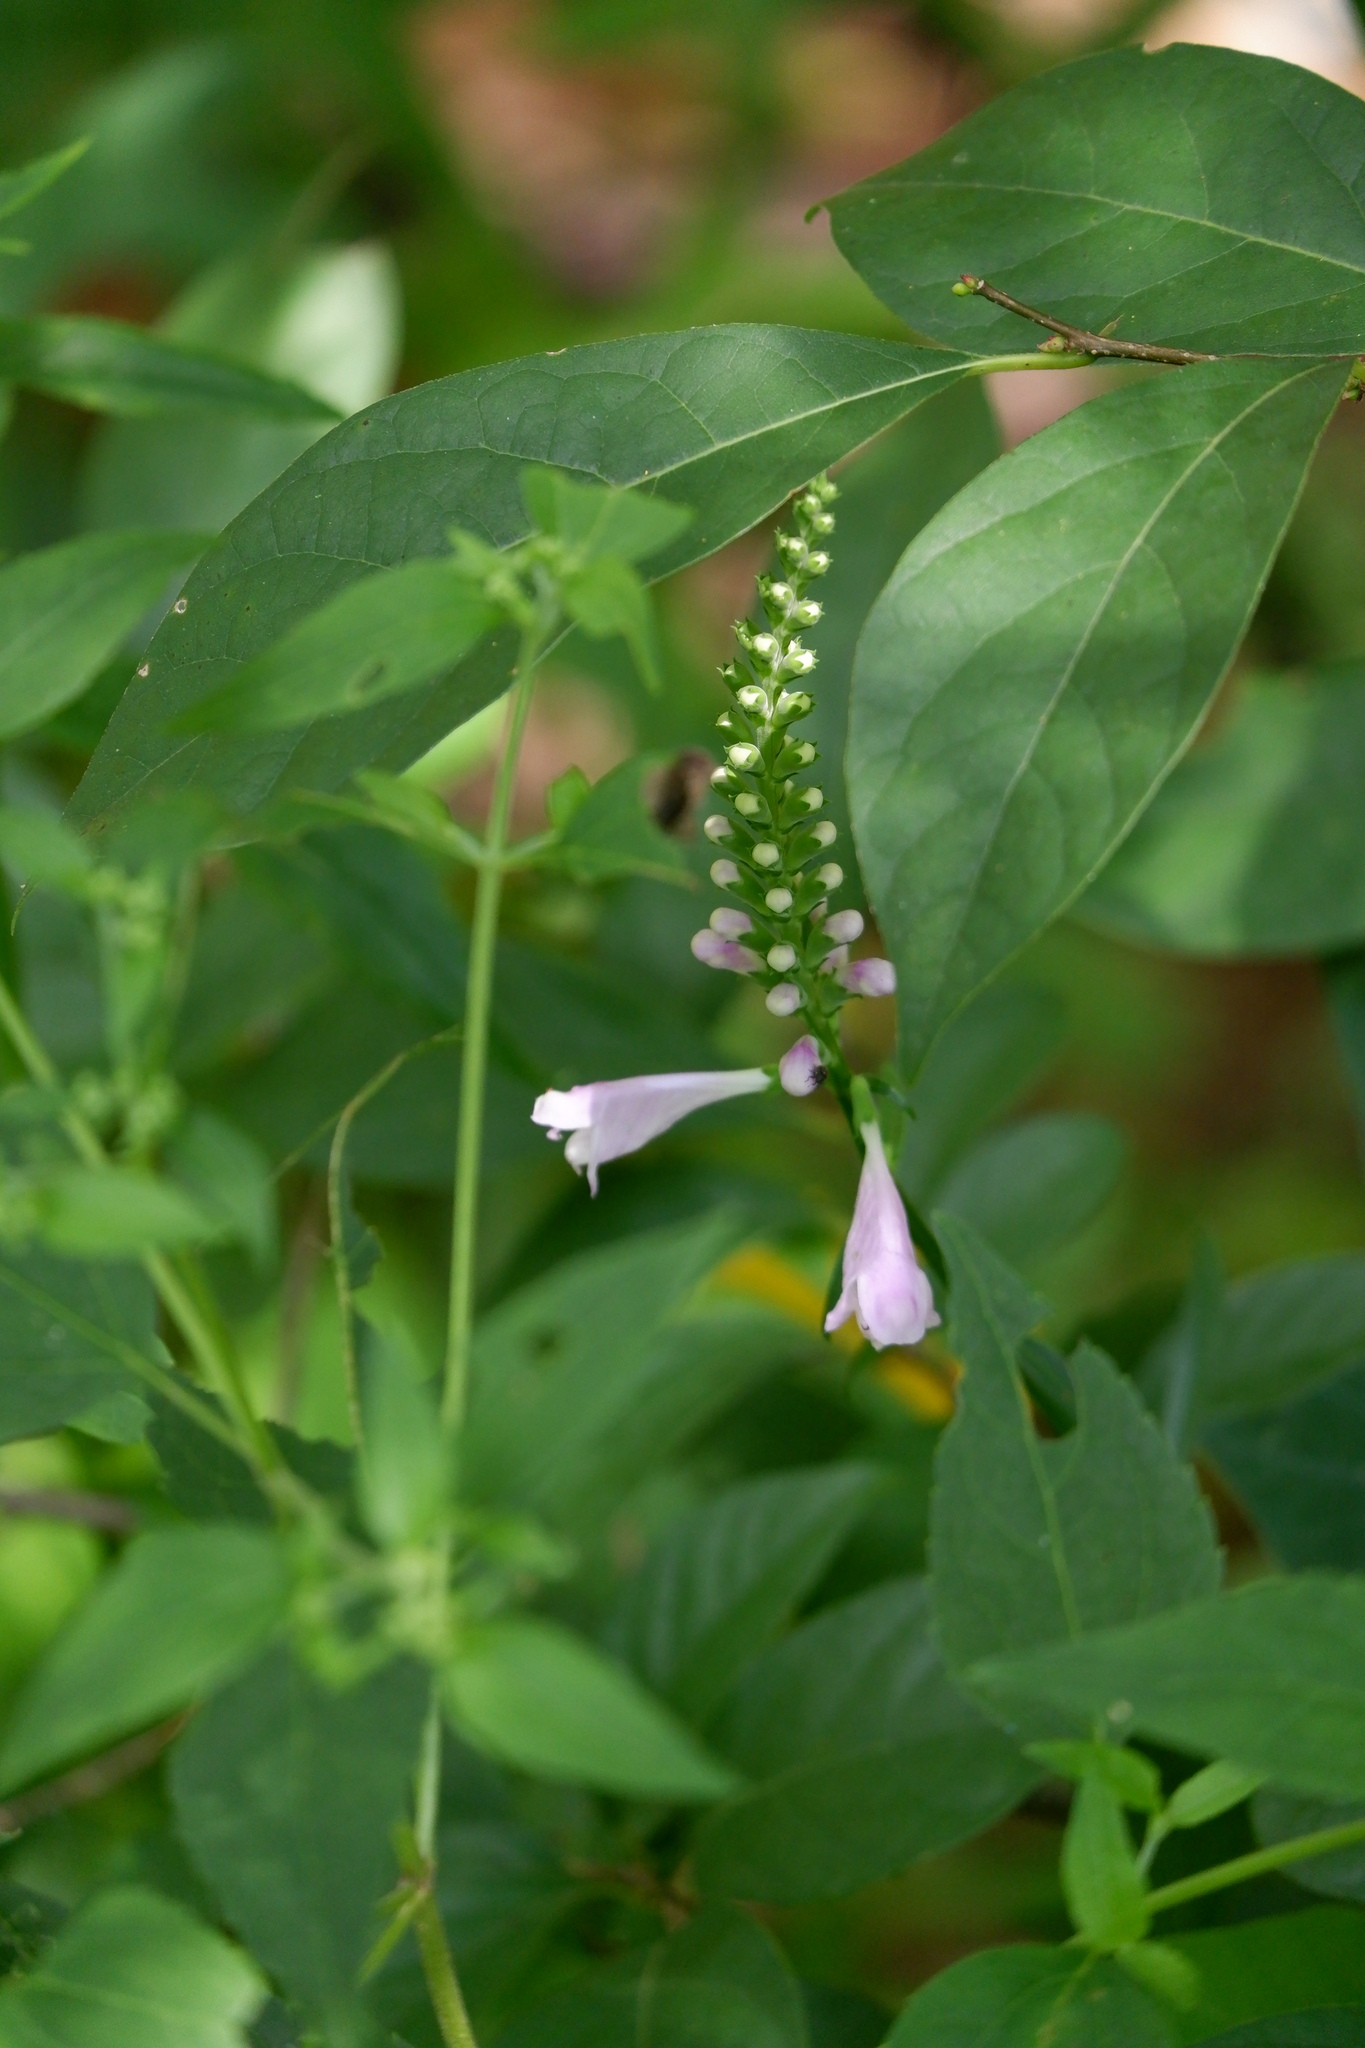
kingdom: Plantae
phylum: Tracheophyta
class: Magnoliopsida
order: Lamiales
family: Lamiaceae
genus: Physostegia
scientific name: Physostegia virginiana
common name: Obedient-plant
